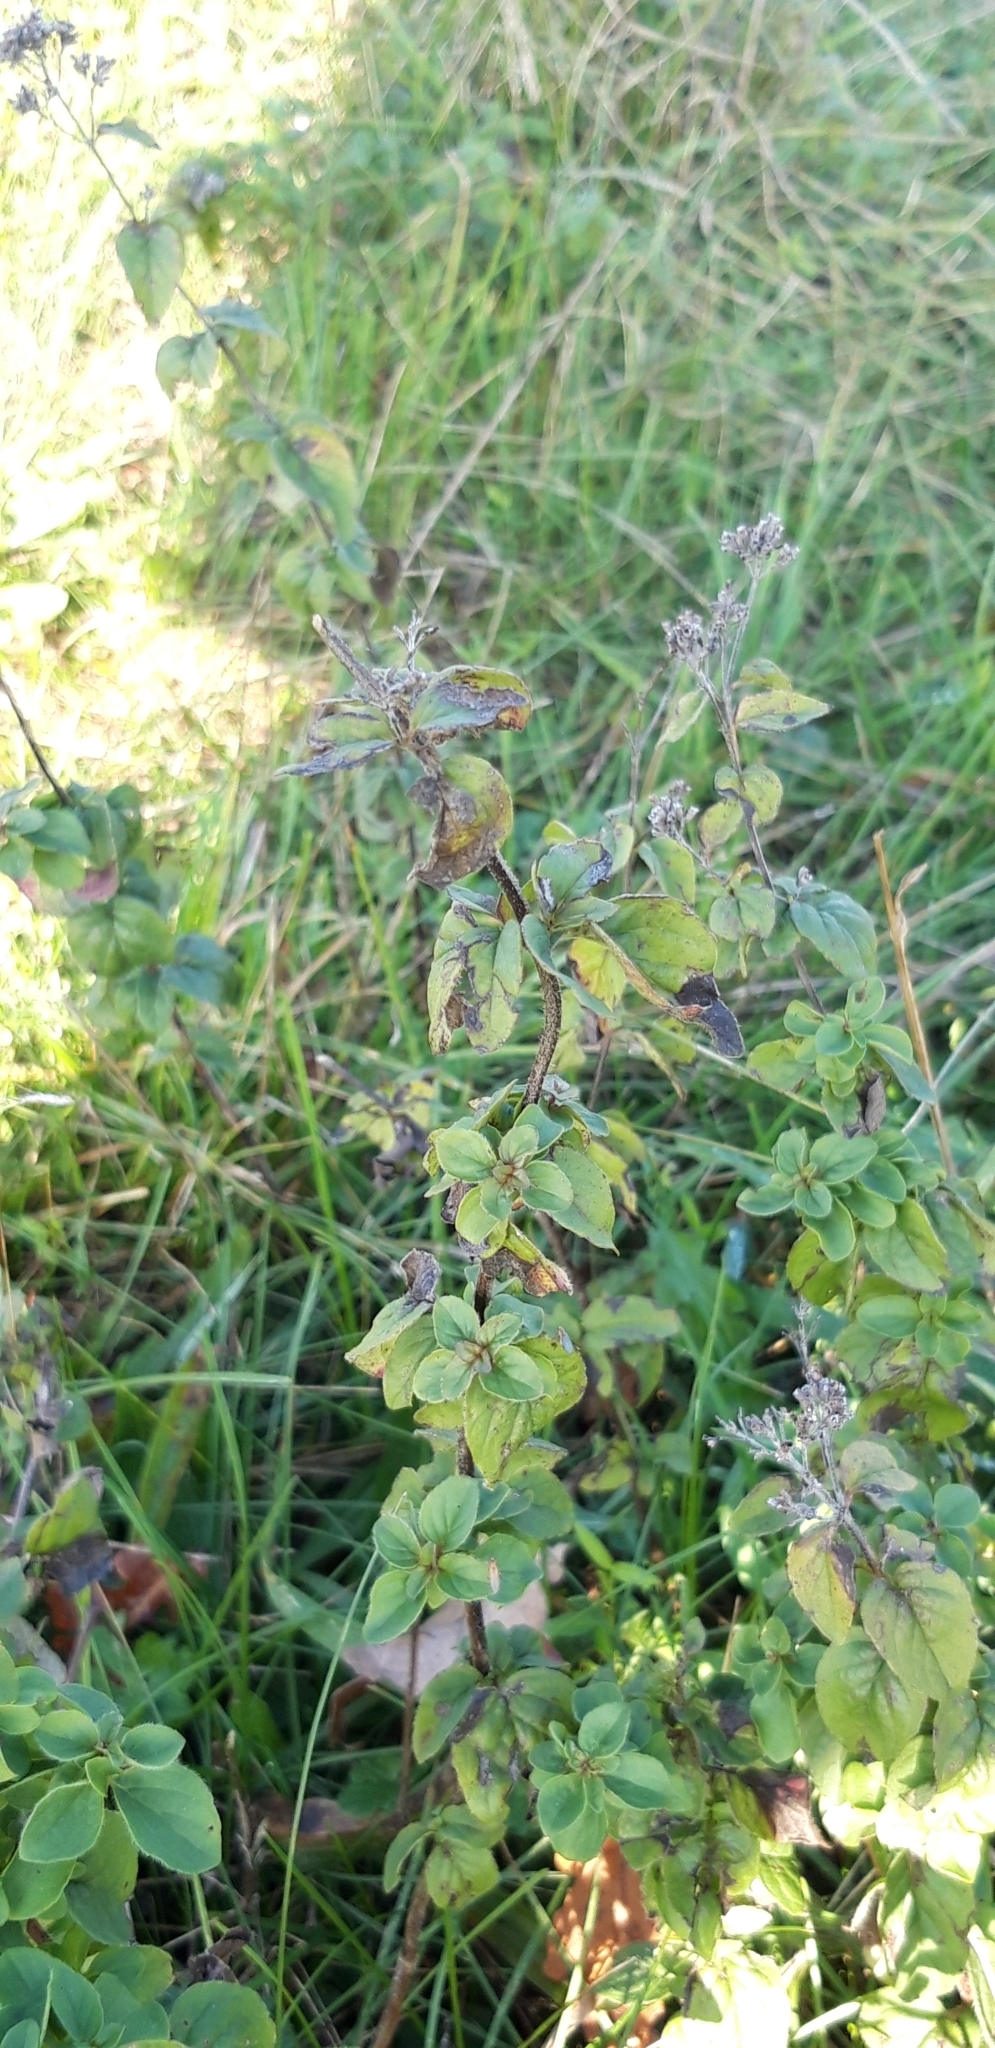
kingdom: Plantae
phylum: Tracheophyta
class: Magnoliopsida
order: Lamiales
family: Lamiaceae
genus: Origanum
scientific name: Origanum vulgare
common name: Wild marjoram
